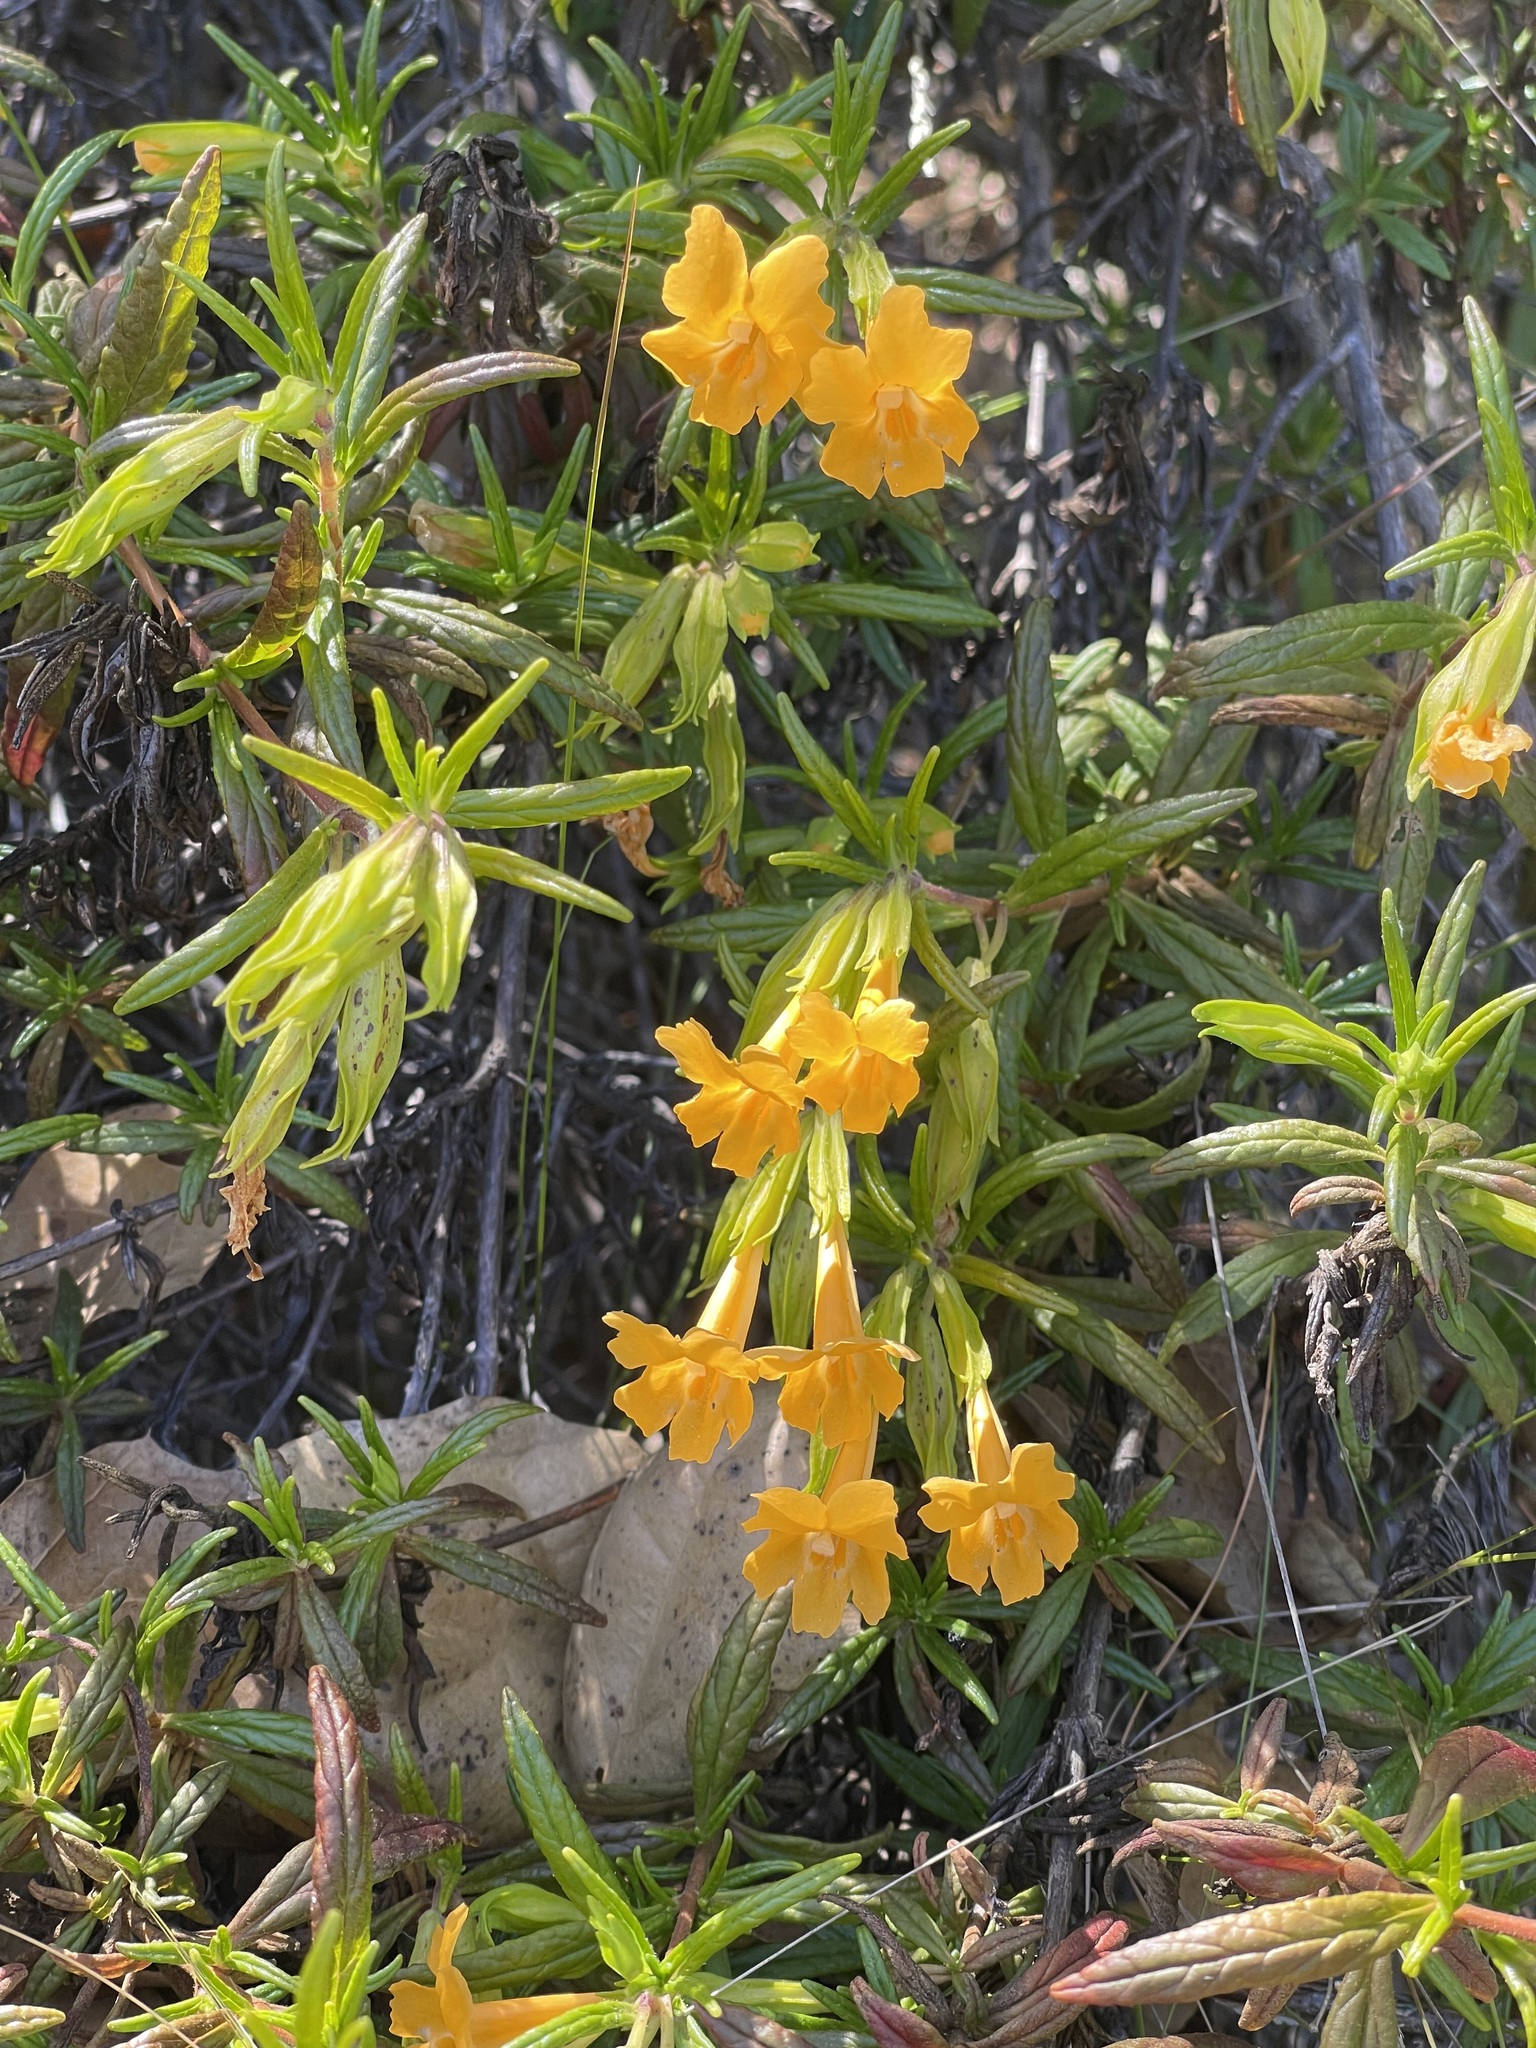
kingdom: Plantae
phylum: Tracheophyta
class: Magnoliopsida
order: Lamiales
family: Phrymaceae
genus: Diplacus
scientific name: Diplacus aurantiacus
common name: Bush monkey-flower
